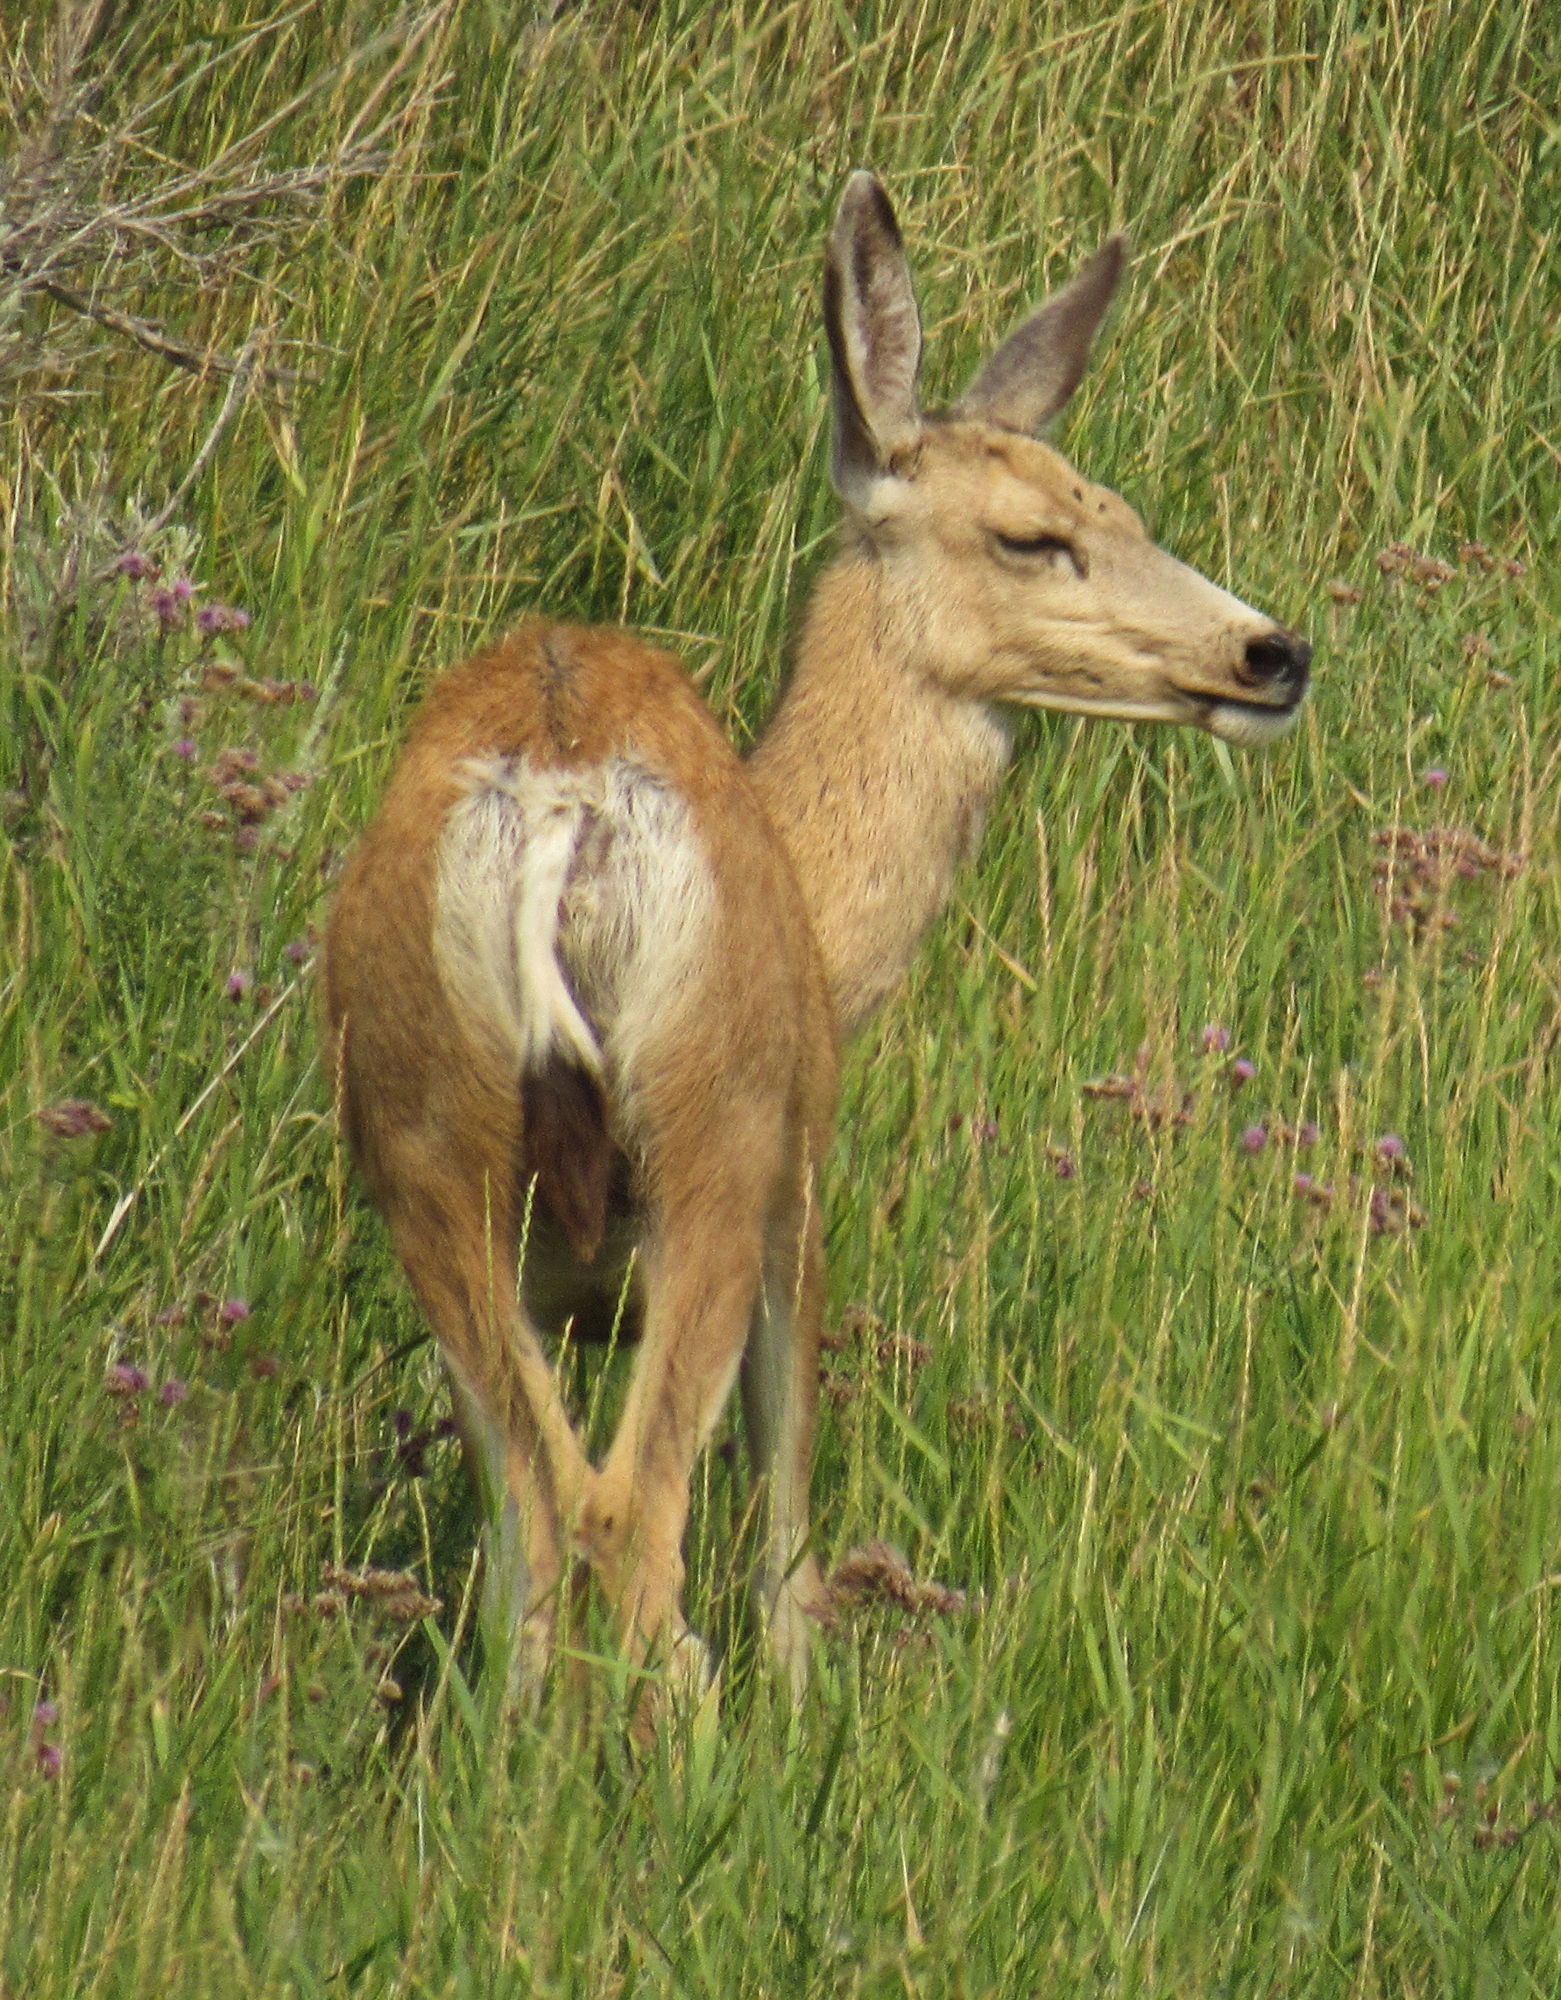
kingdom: Animalia
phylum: Chordata
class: Mammalia
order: Artiodactyla
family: Cervidae
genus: Odocoileus
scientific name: Odocoileus hemionus
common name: Mule deer
